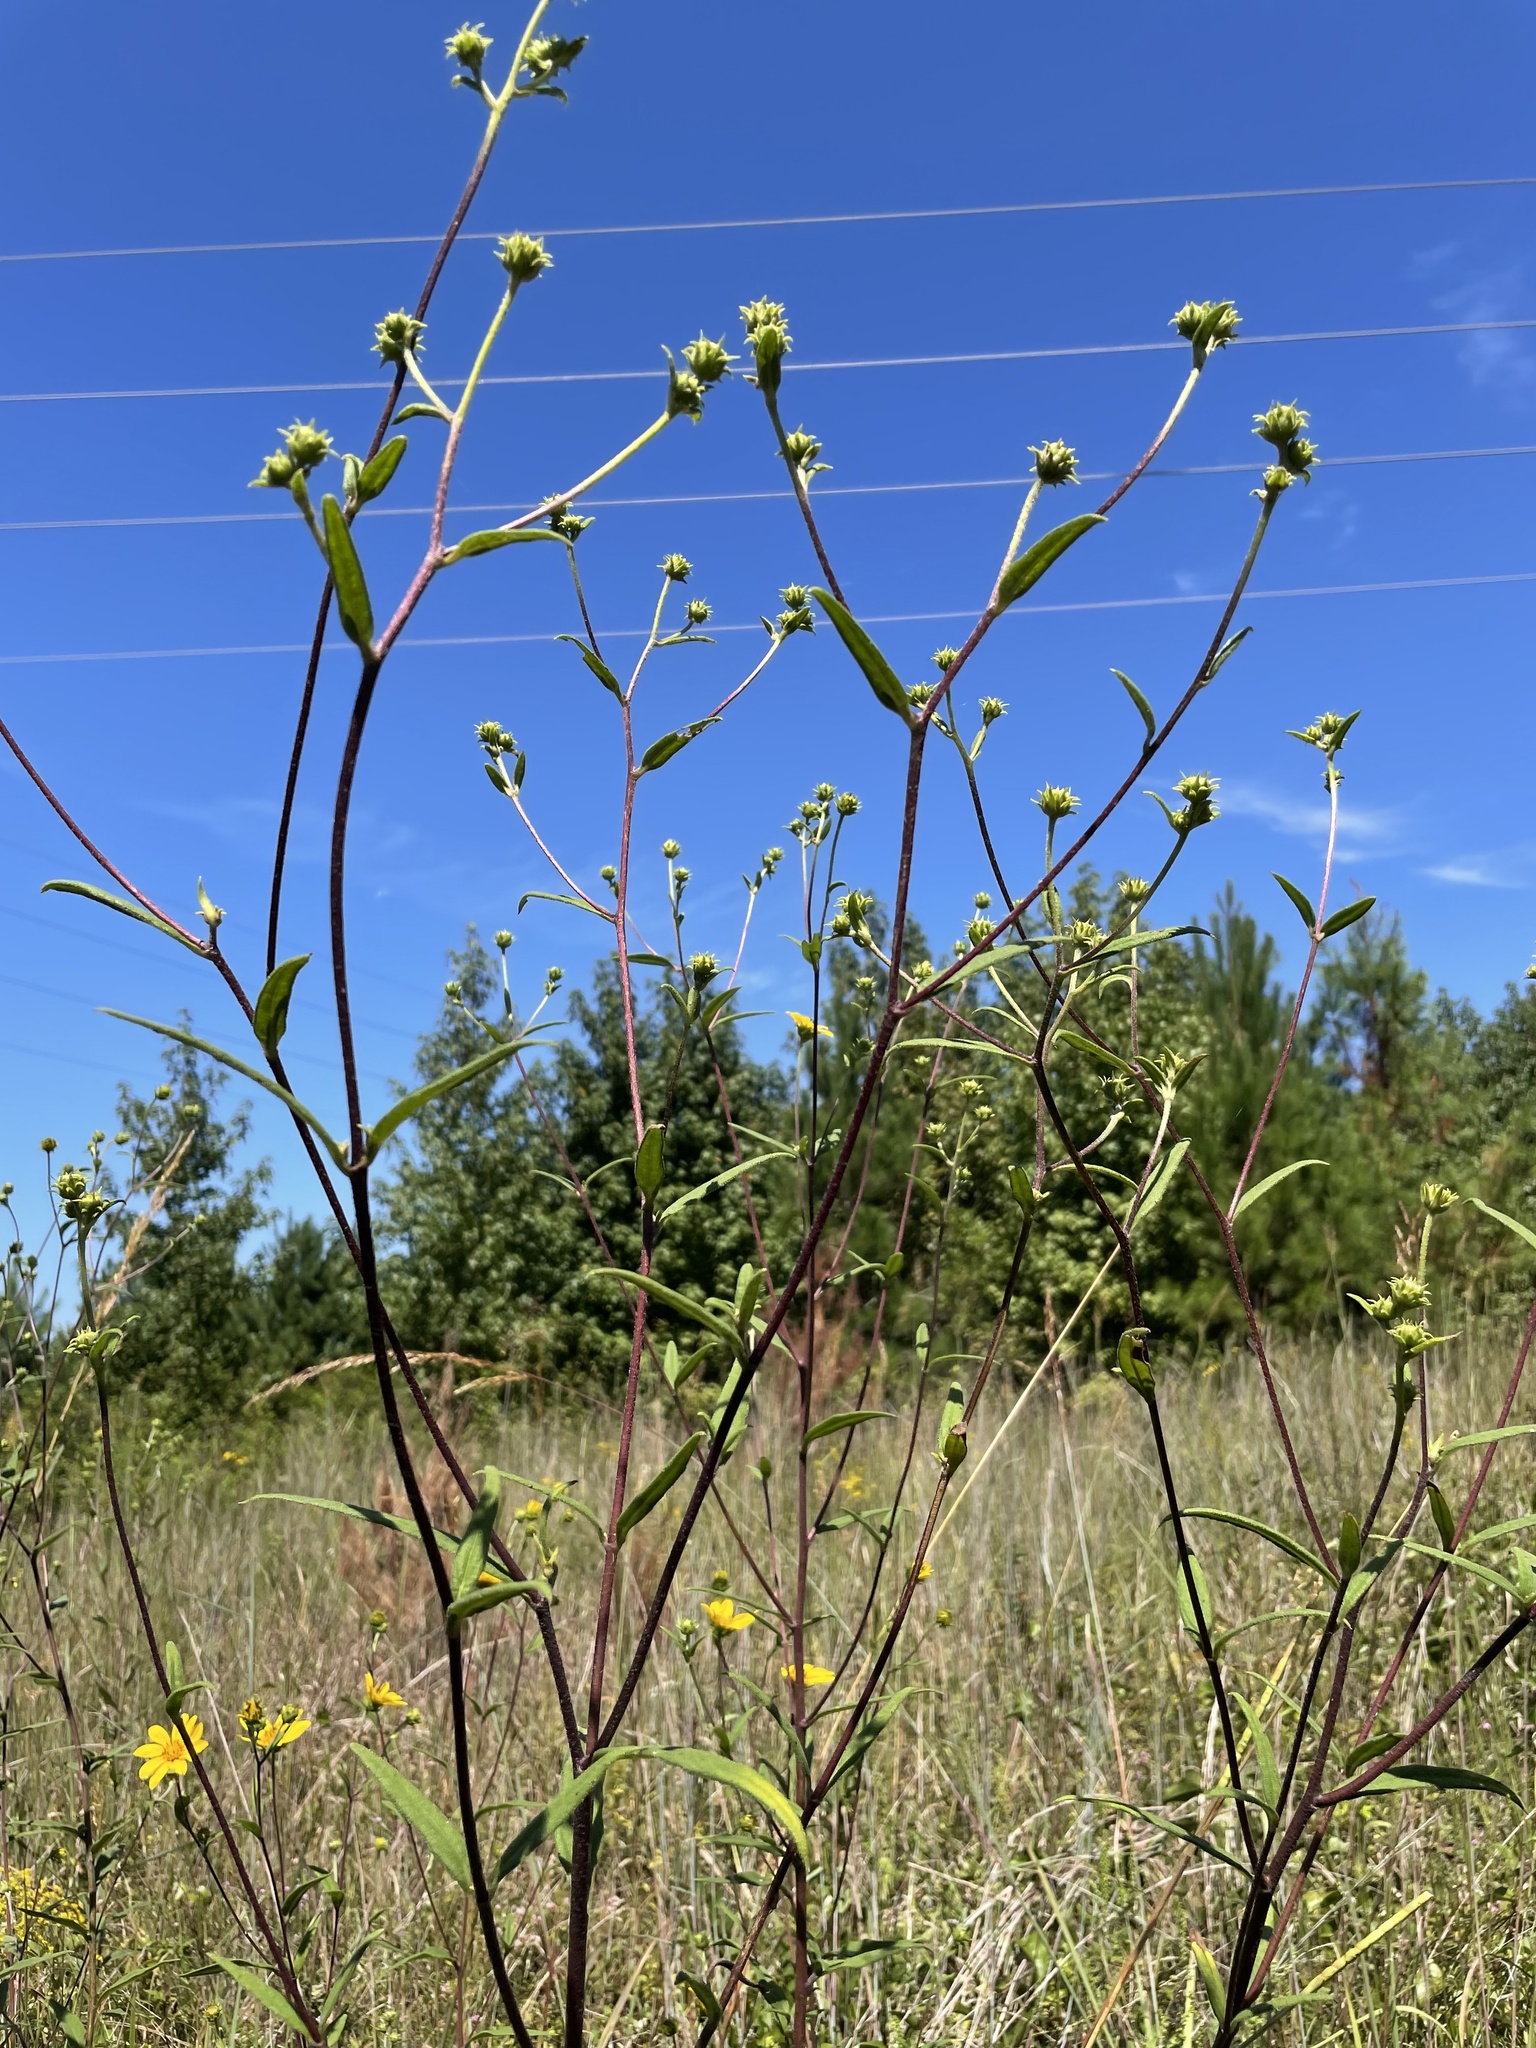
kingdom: Plantae
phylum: Tracheophyta
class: Magnoliopsida
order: Asterales
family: Asteraceae
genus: Helianthus
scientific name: Helianthus schweinitzii
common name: Schweinitz's sunflower
